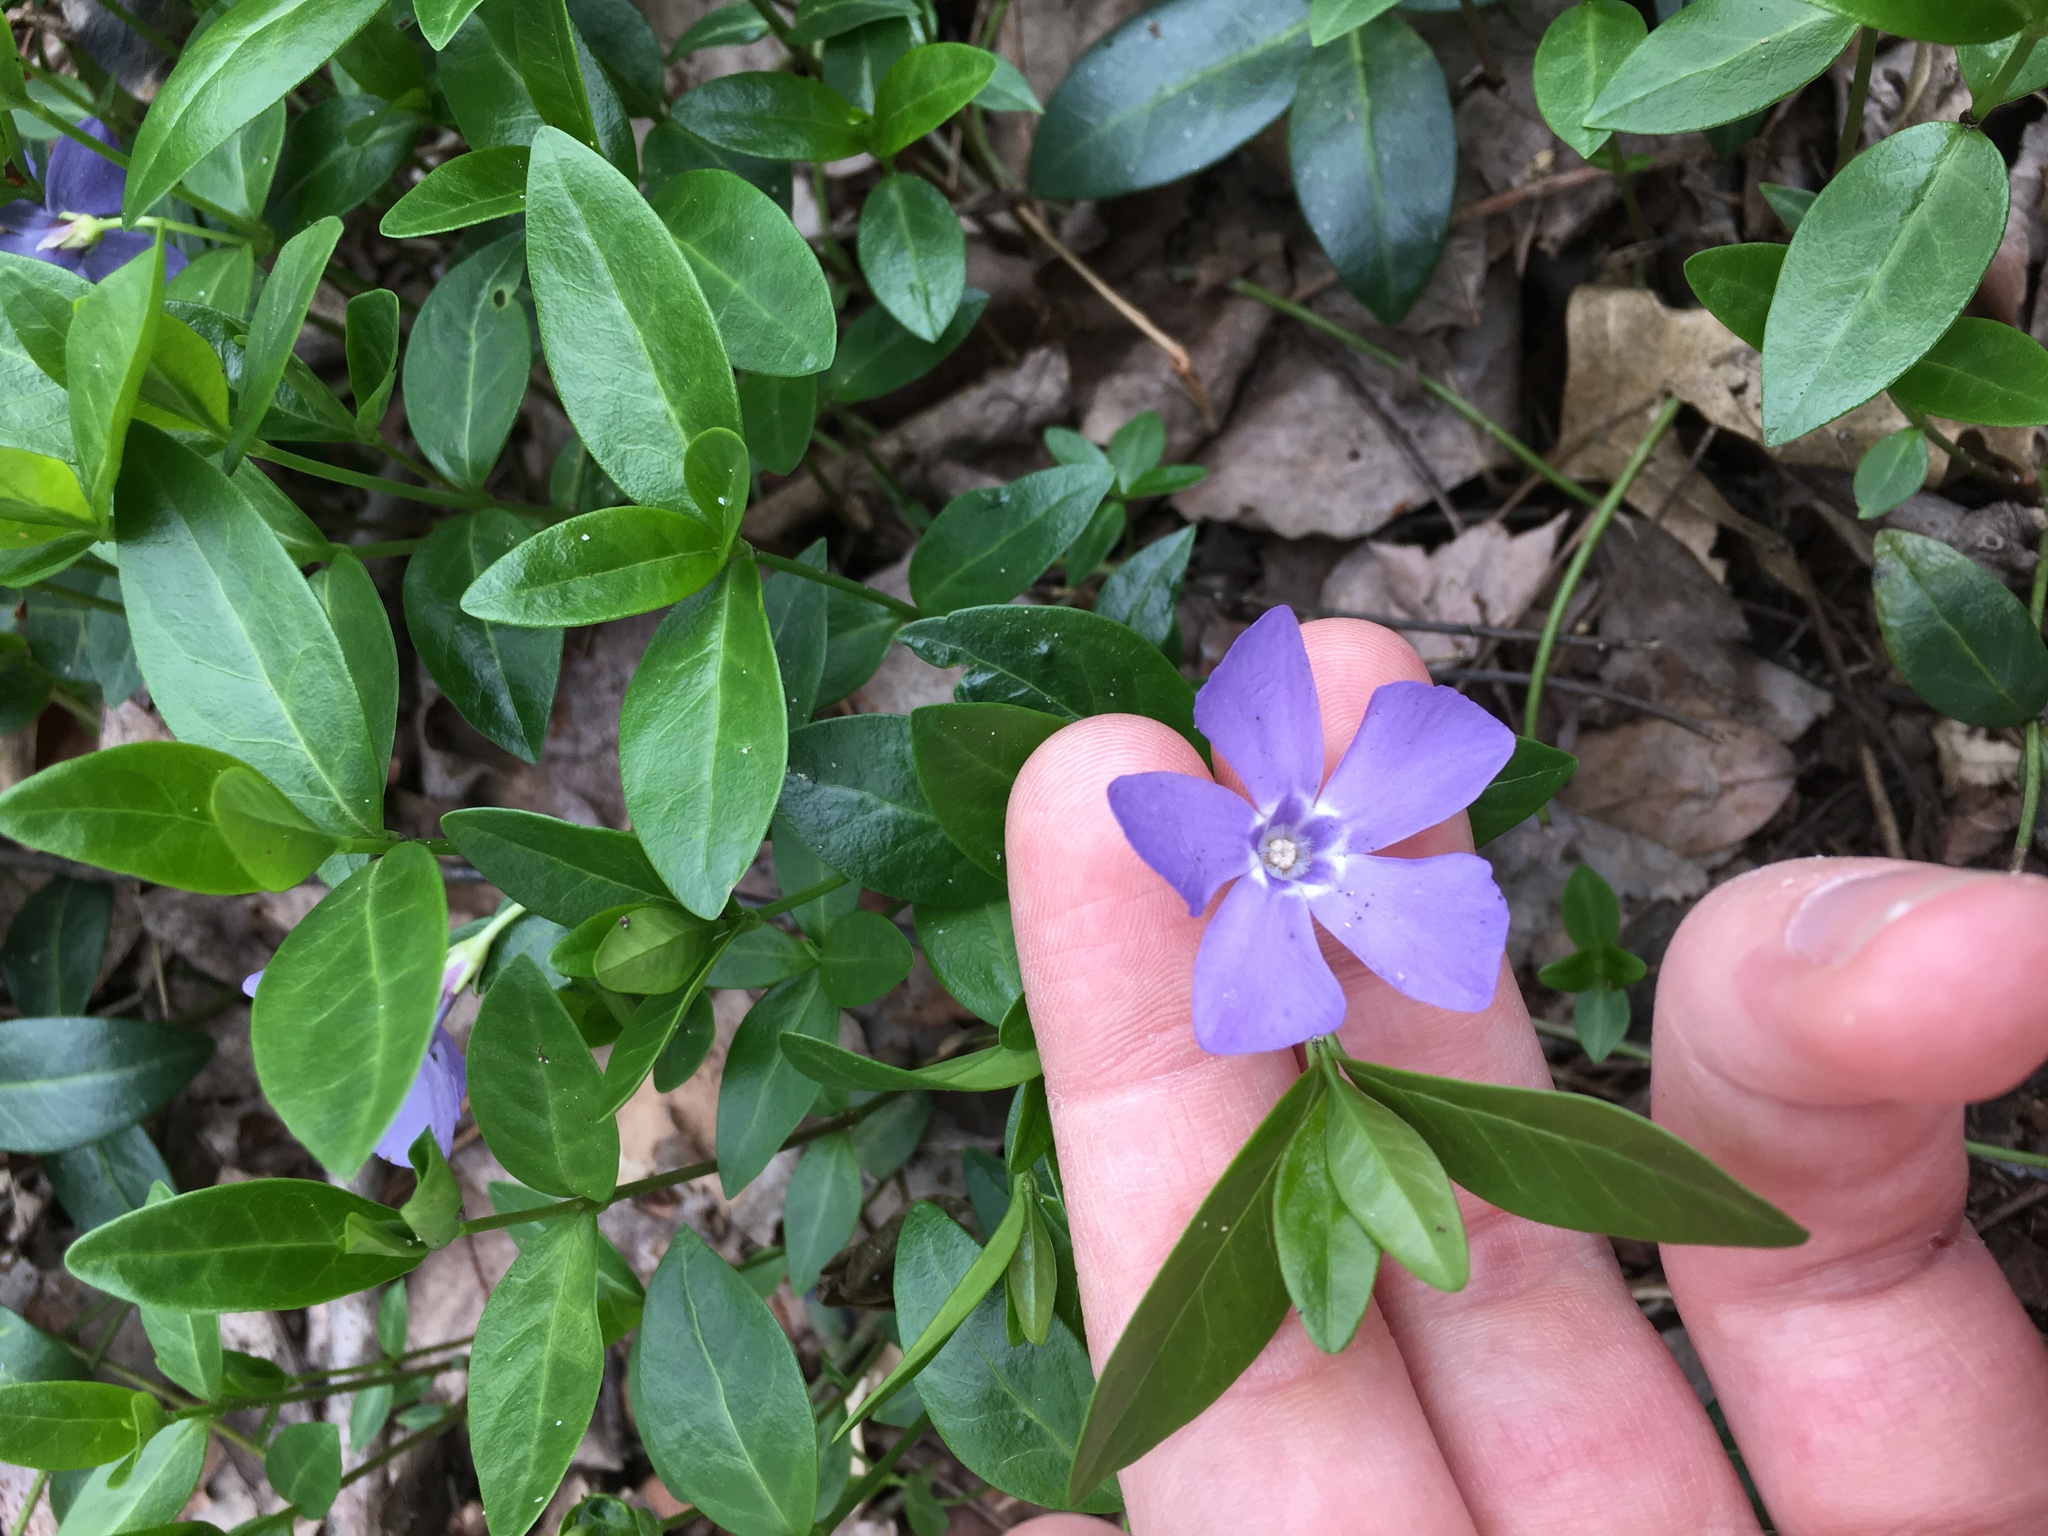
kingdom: Plantae
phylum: Tracheophyta
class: Magnoliopsida
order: Gentianales
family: Apocynaceae
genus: Vinca
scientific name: Vinca minor
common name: Lesser periwinkle
